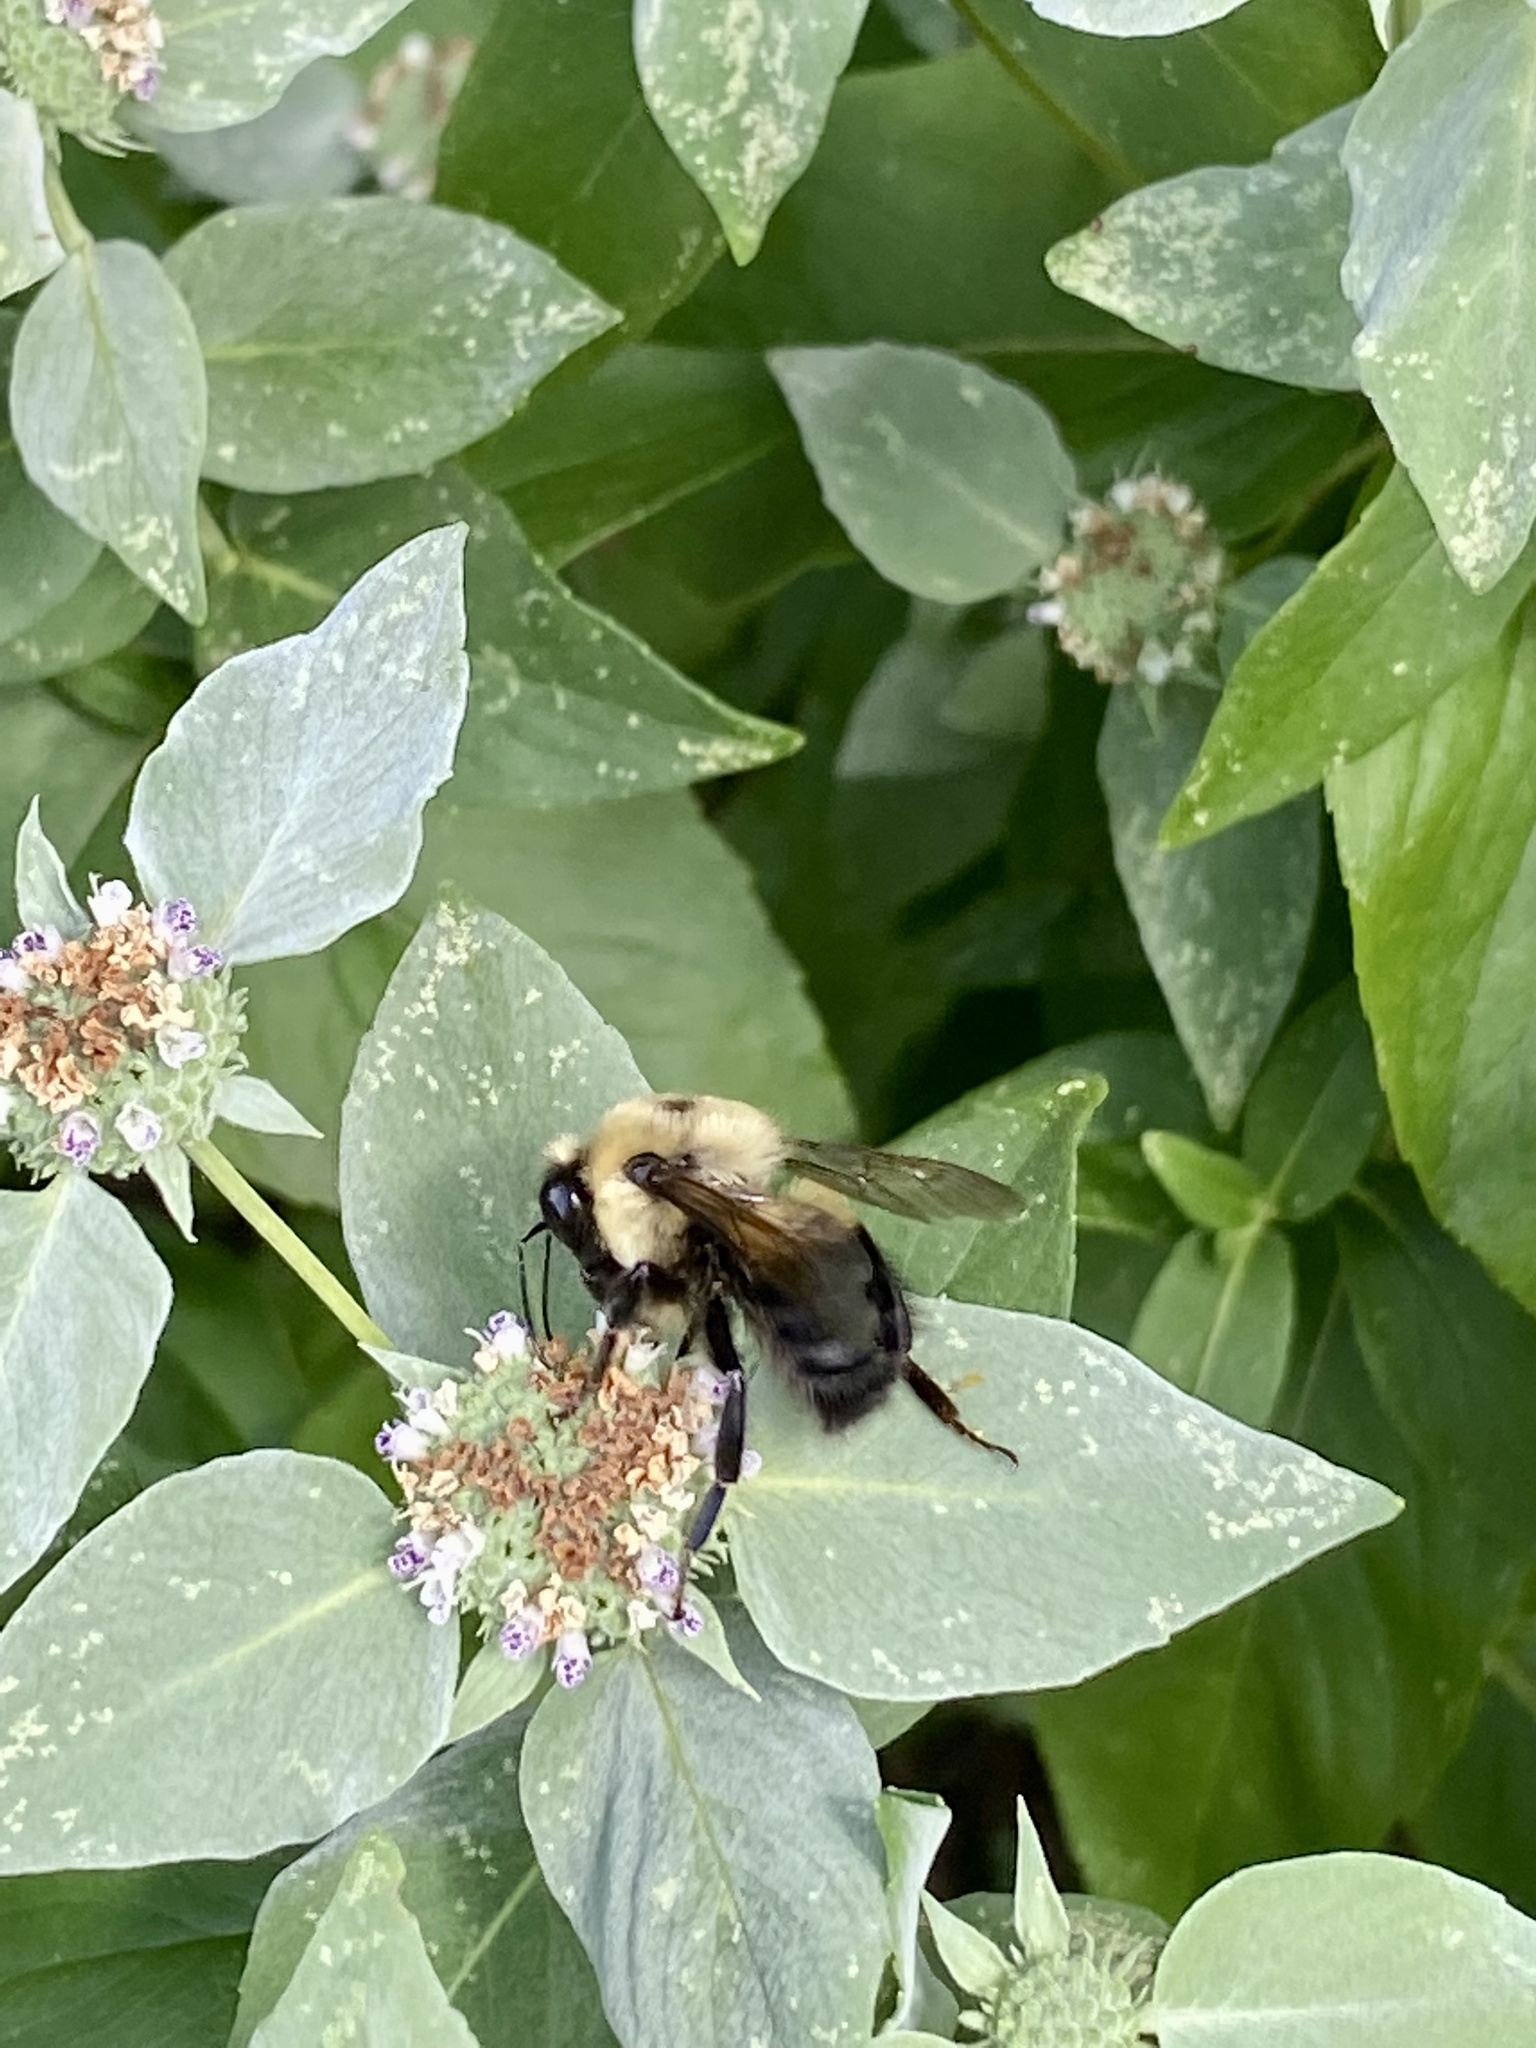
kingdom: Animalia
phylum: Arthropoda
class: Insecta
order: Hymenoptera
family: Apidae
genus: Bombus
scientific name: Bombus griseocollis
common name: Brown-belted bumble bee
